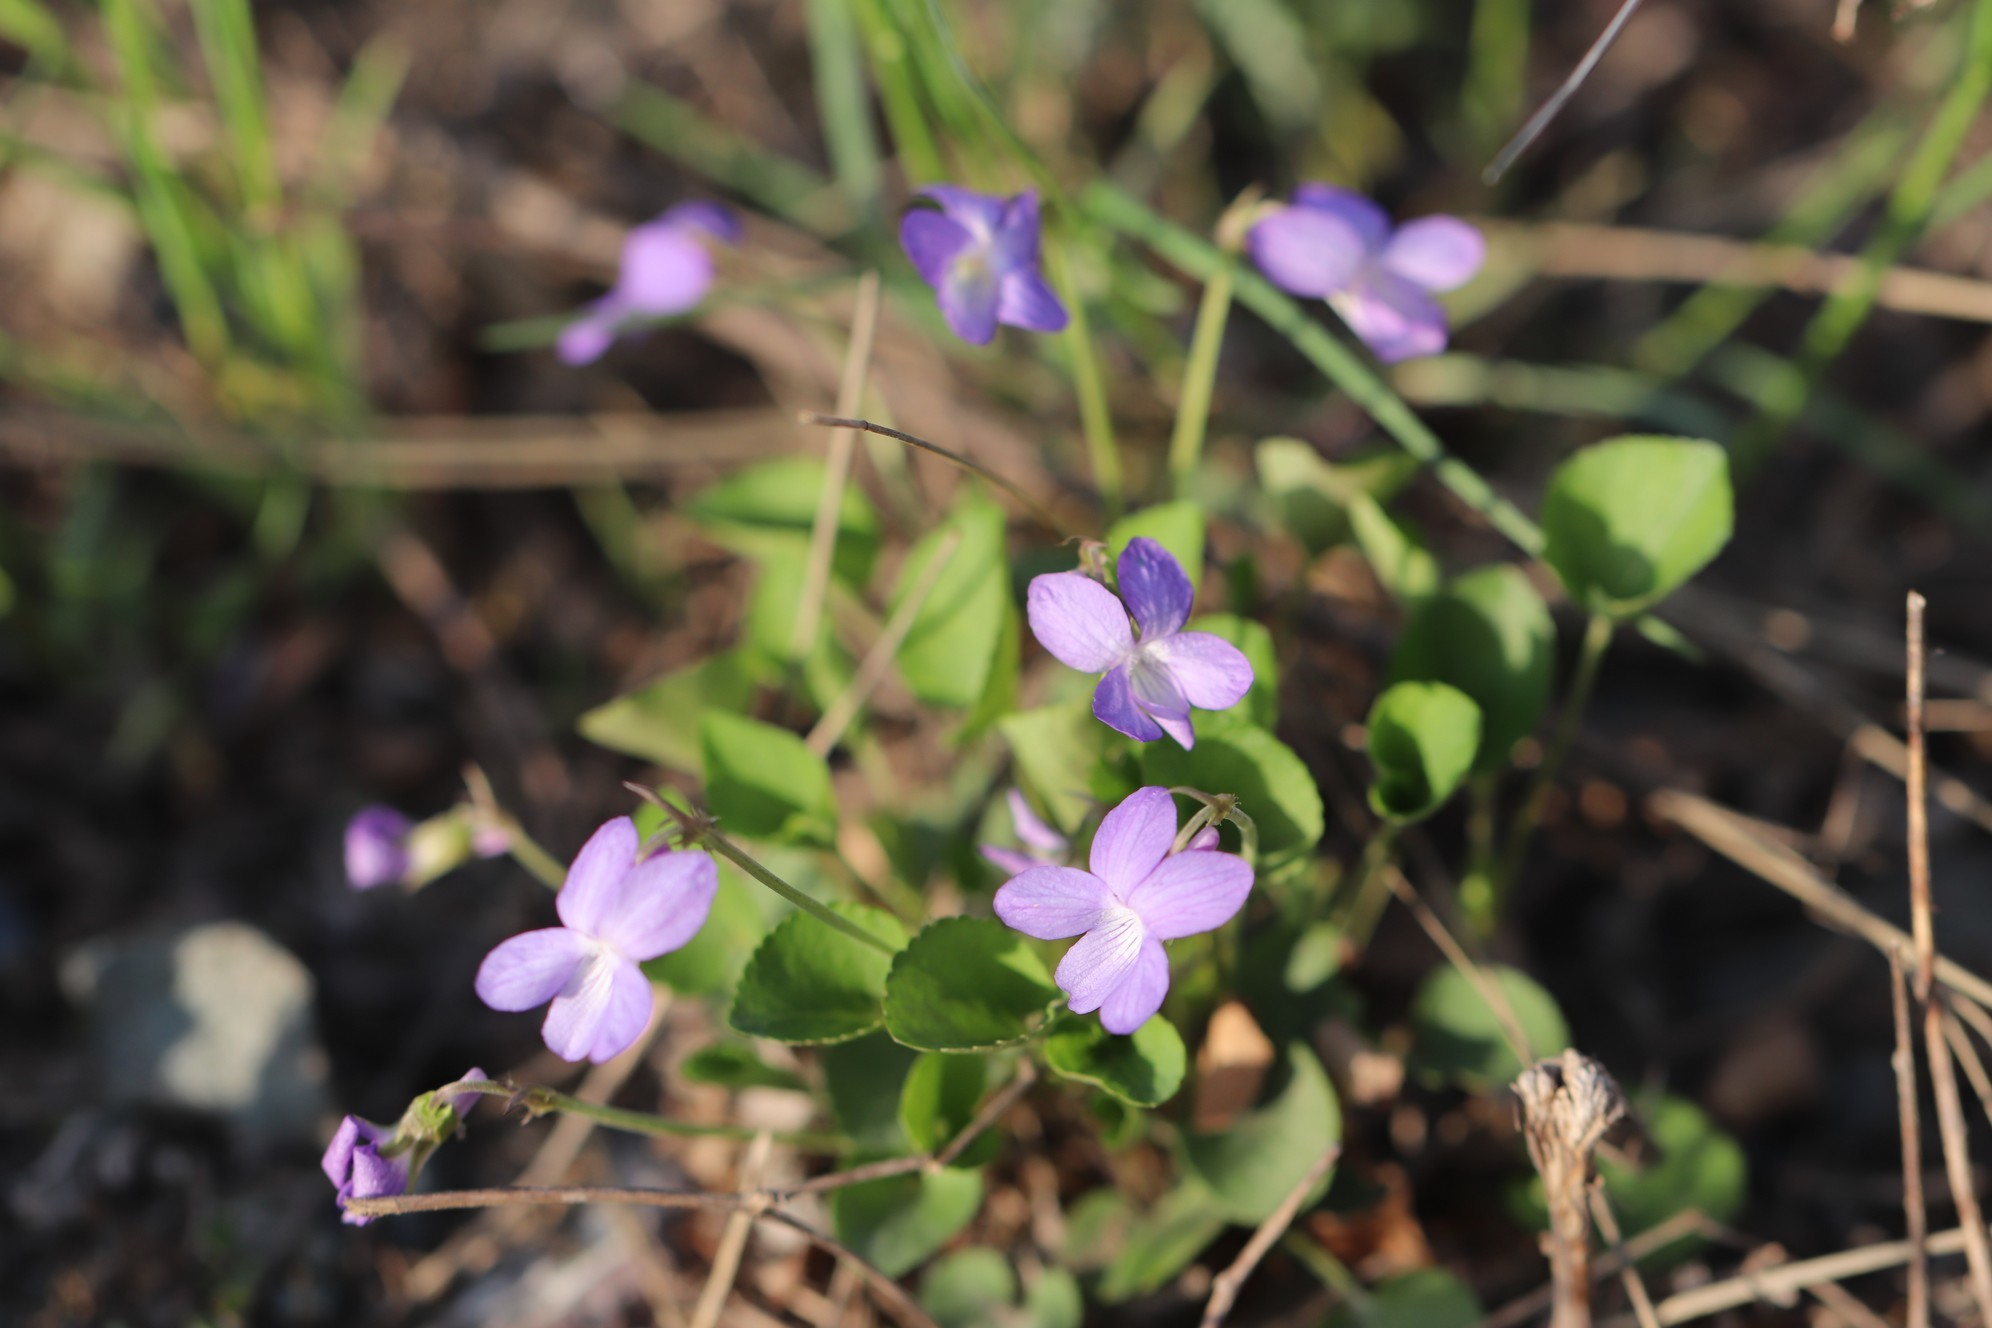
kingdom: Plantae
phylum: Tracheophyta
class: Magnoliopsida
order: Malpighiales
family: Violaceae
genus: Viola
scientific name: Viola rupestris
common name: Teesdale violet
